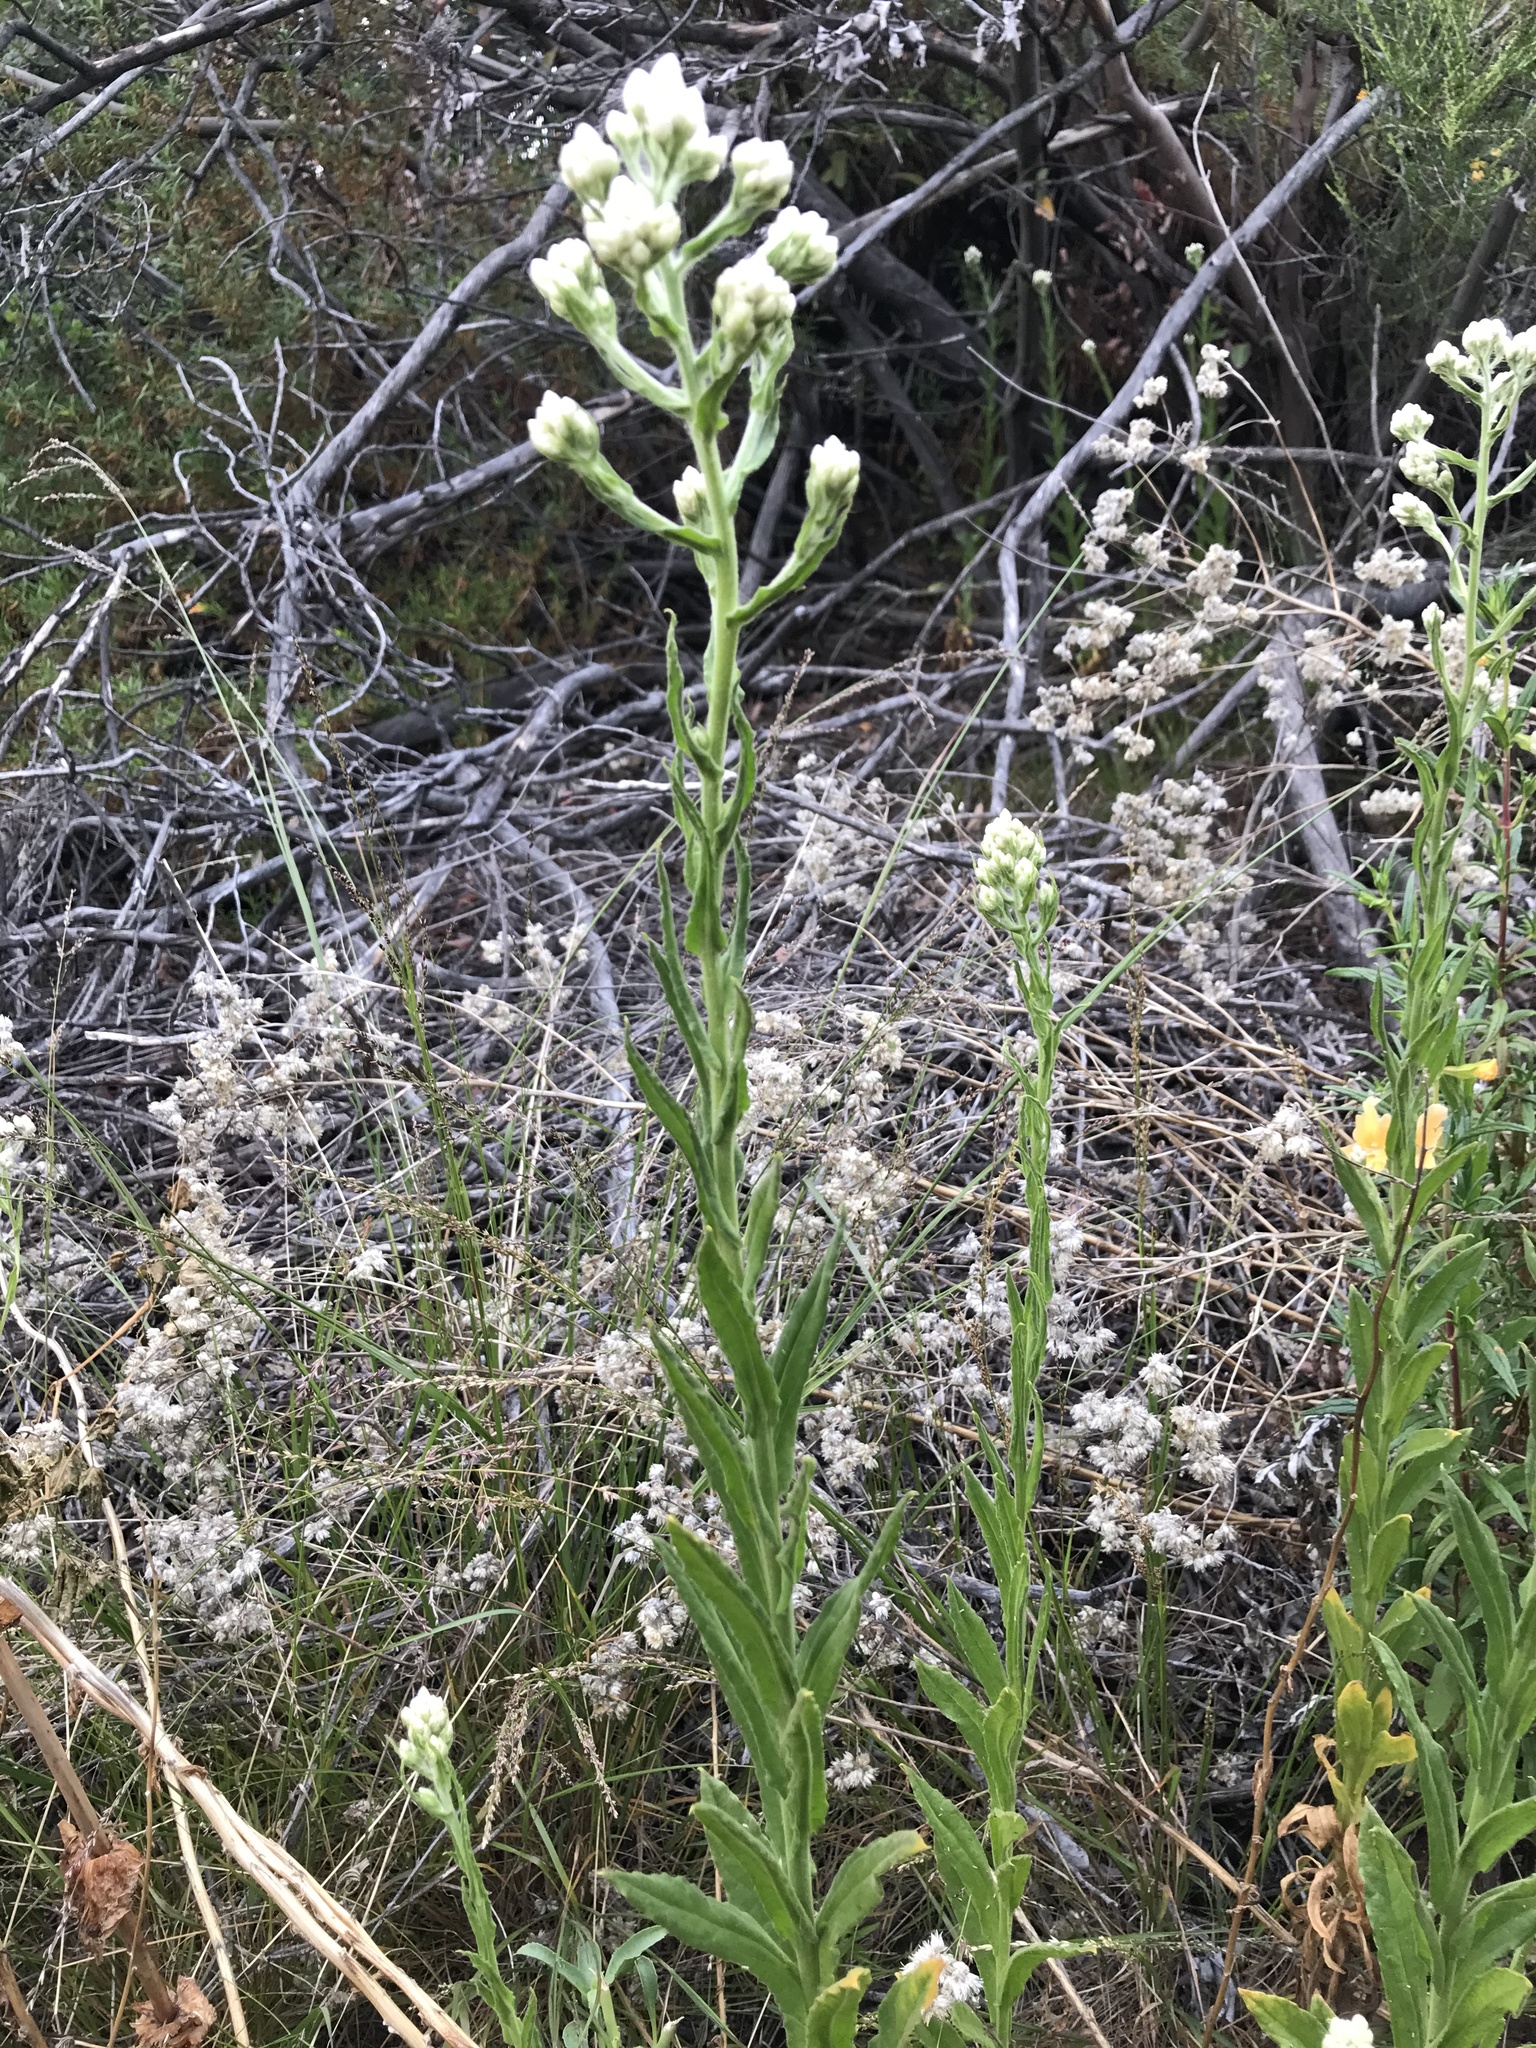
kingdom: Plantae
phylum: Tracheophyta
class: Magnoliopsida
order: Asterales
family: Asteraceae
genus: Pseudognaphalium
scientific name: Pseudognaphalium californicum
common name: California rabbit-tobacco
